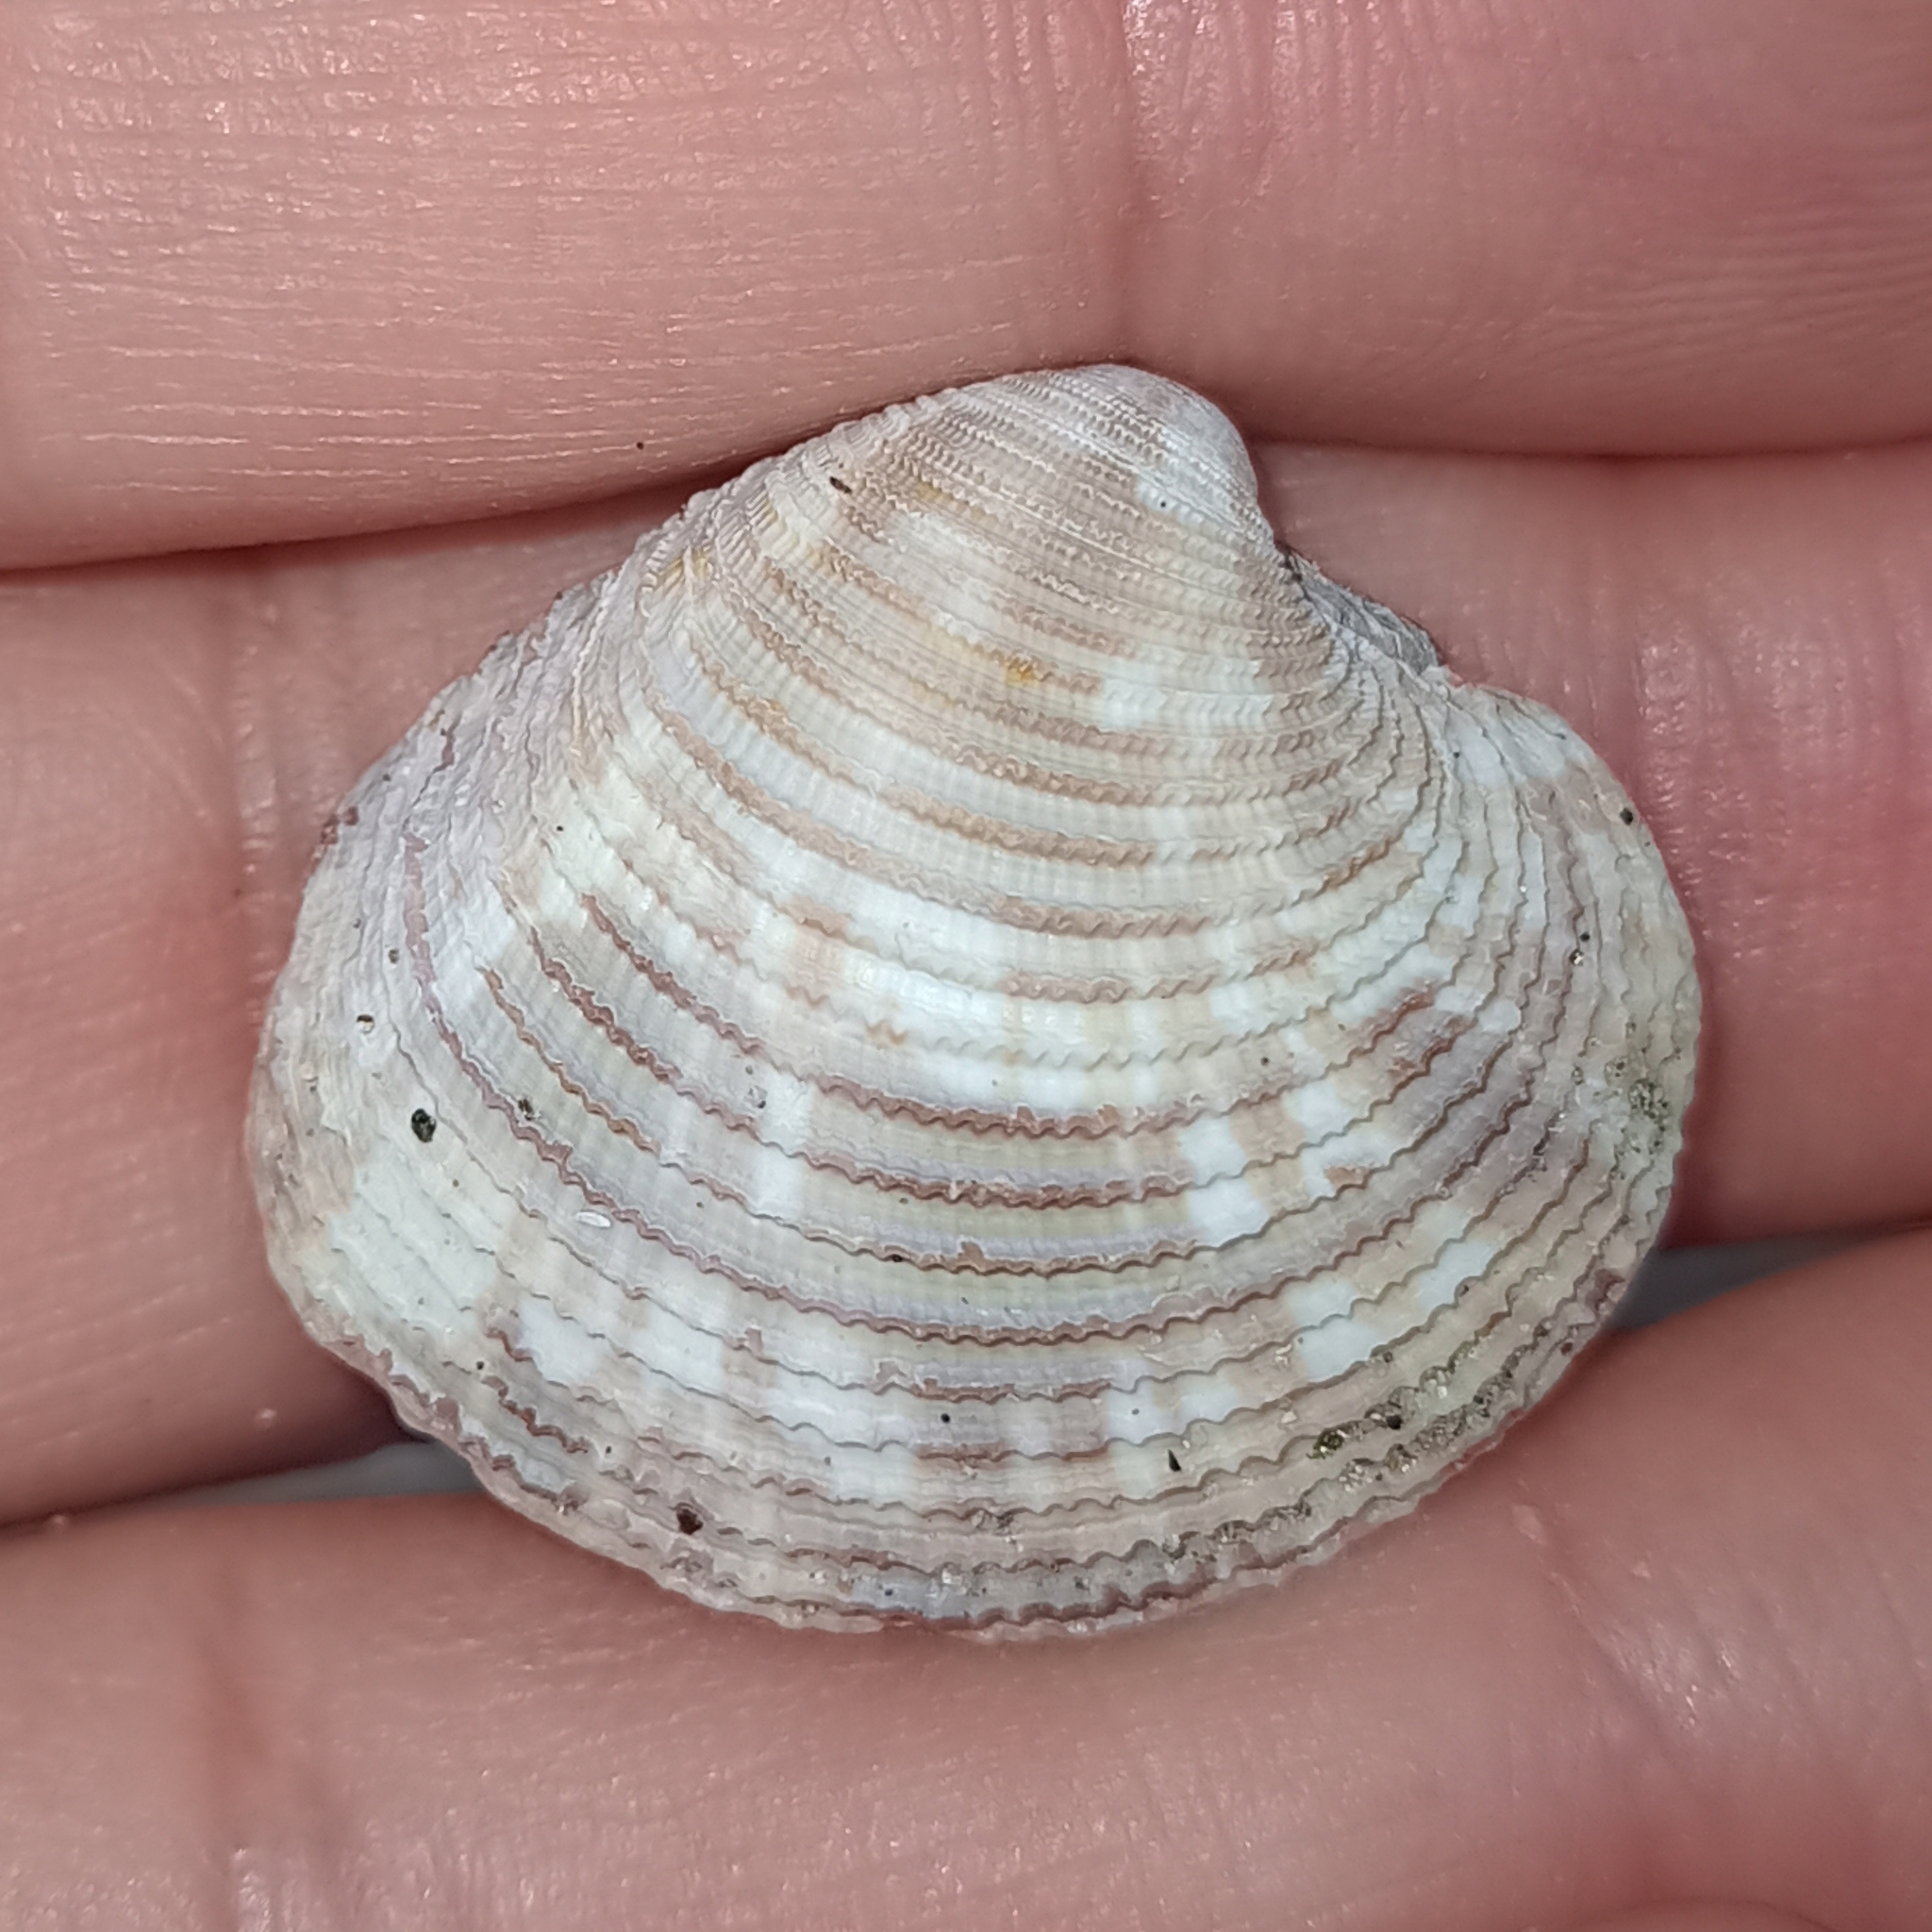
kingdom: Animalia
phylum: Mollusca
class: Bivalvia
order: Venerida
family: Veneridae
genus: Chionopsis
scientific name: Chionopsis intapurpurea
